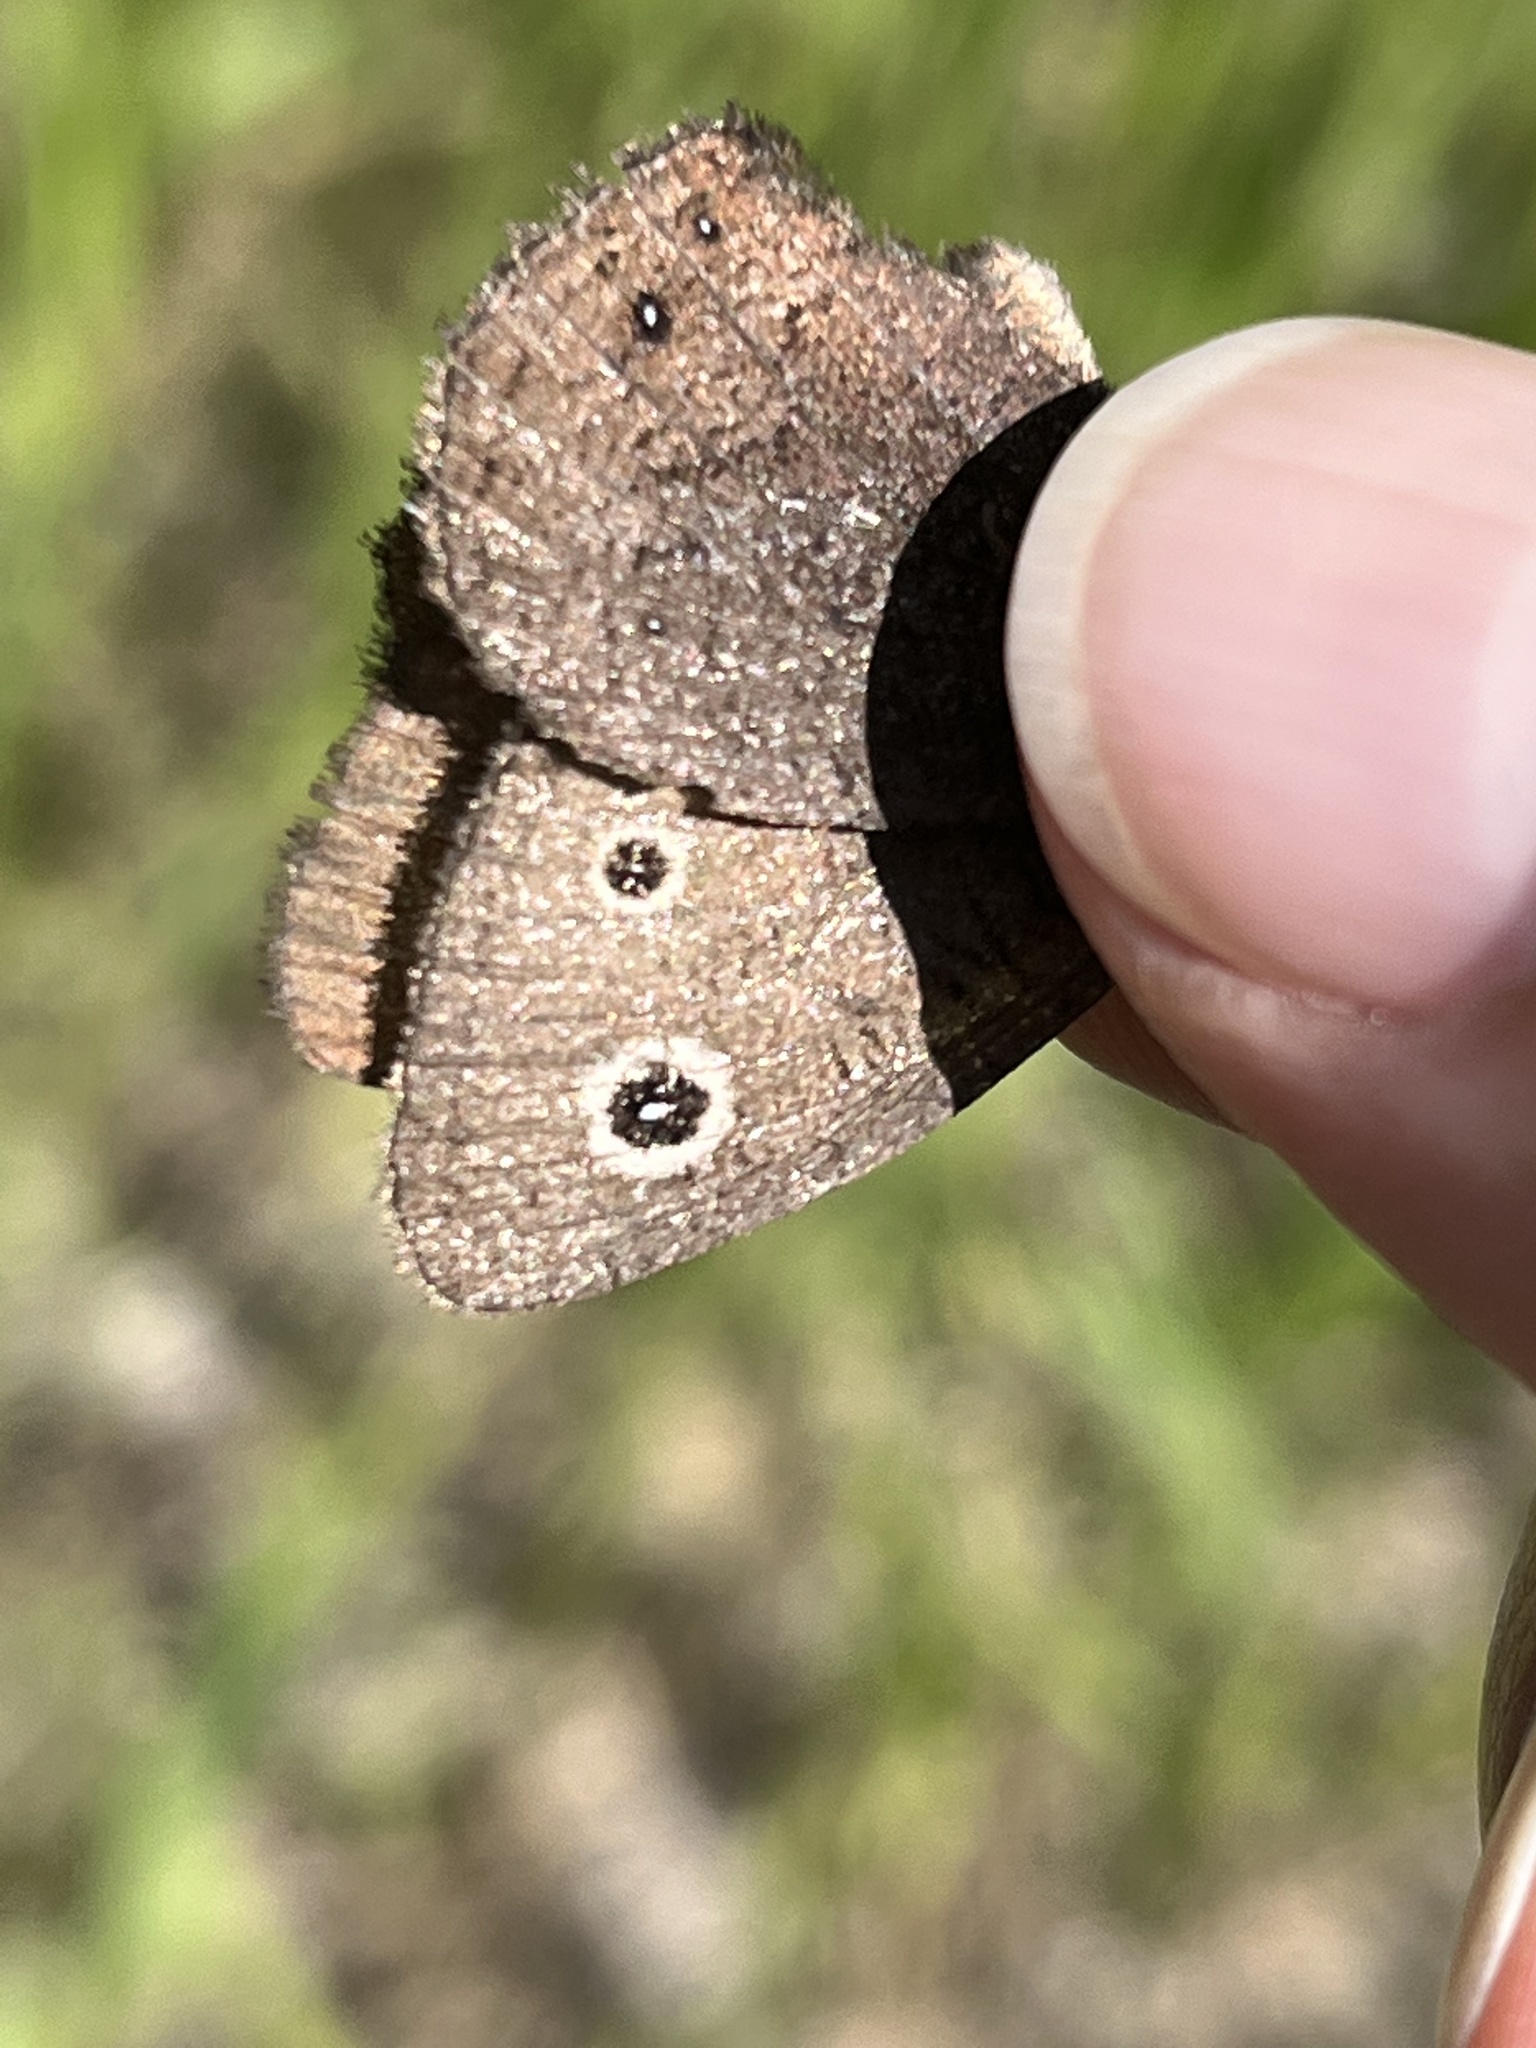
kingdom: Animalia
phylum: Arthropoda
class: Insecta
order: Lepidoptera
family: Nymphalidae
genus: Cercyonis
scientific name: Cercyonis oetus
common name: Small wood-nymph
